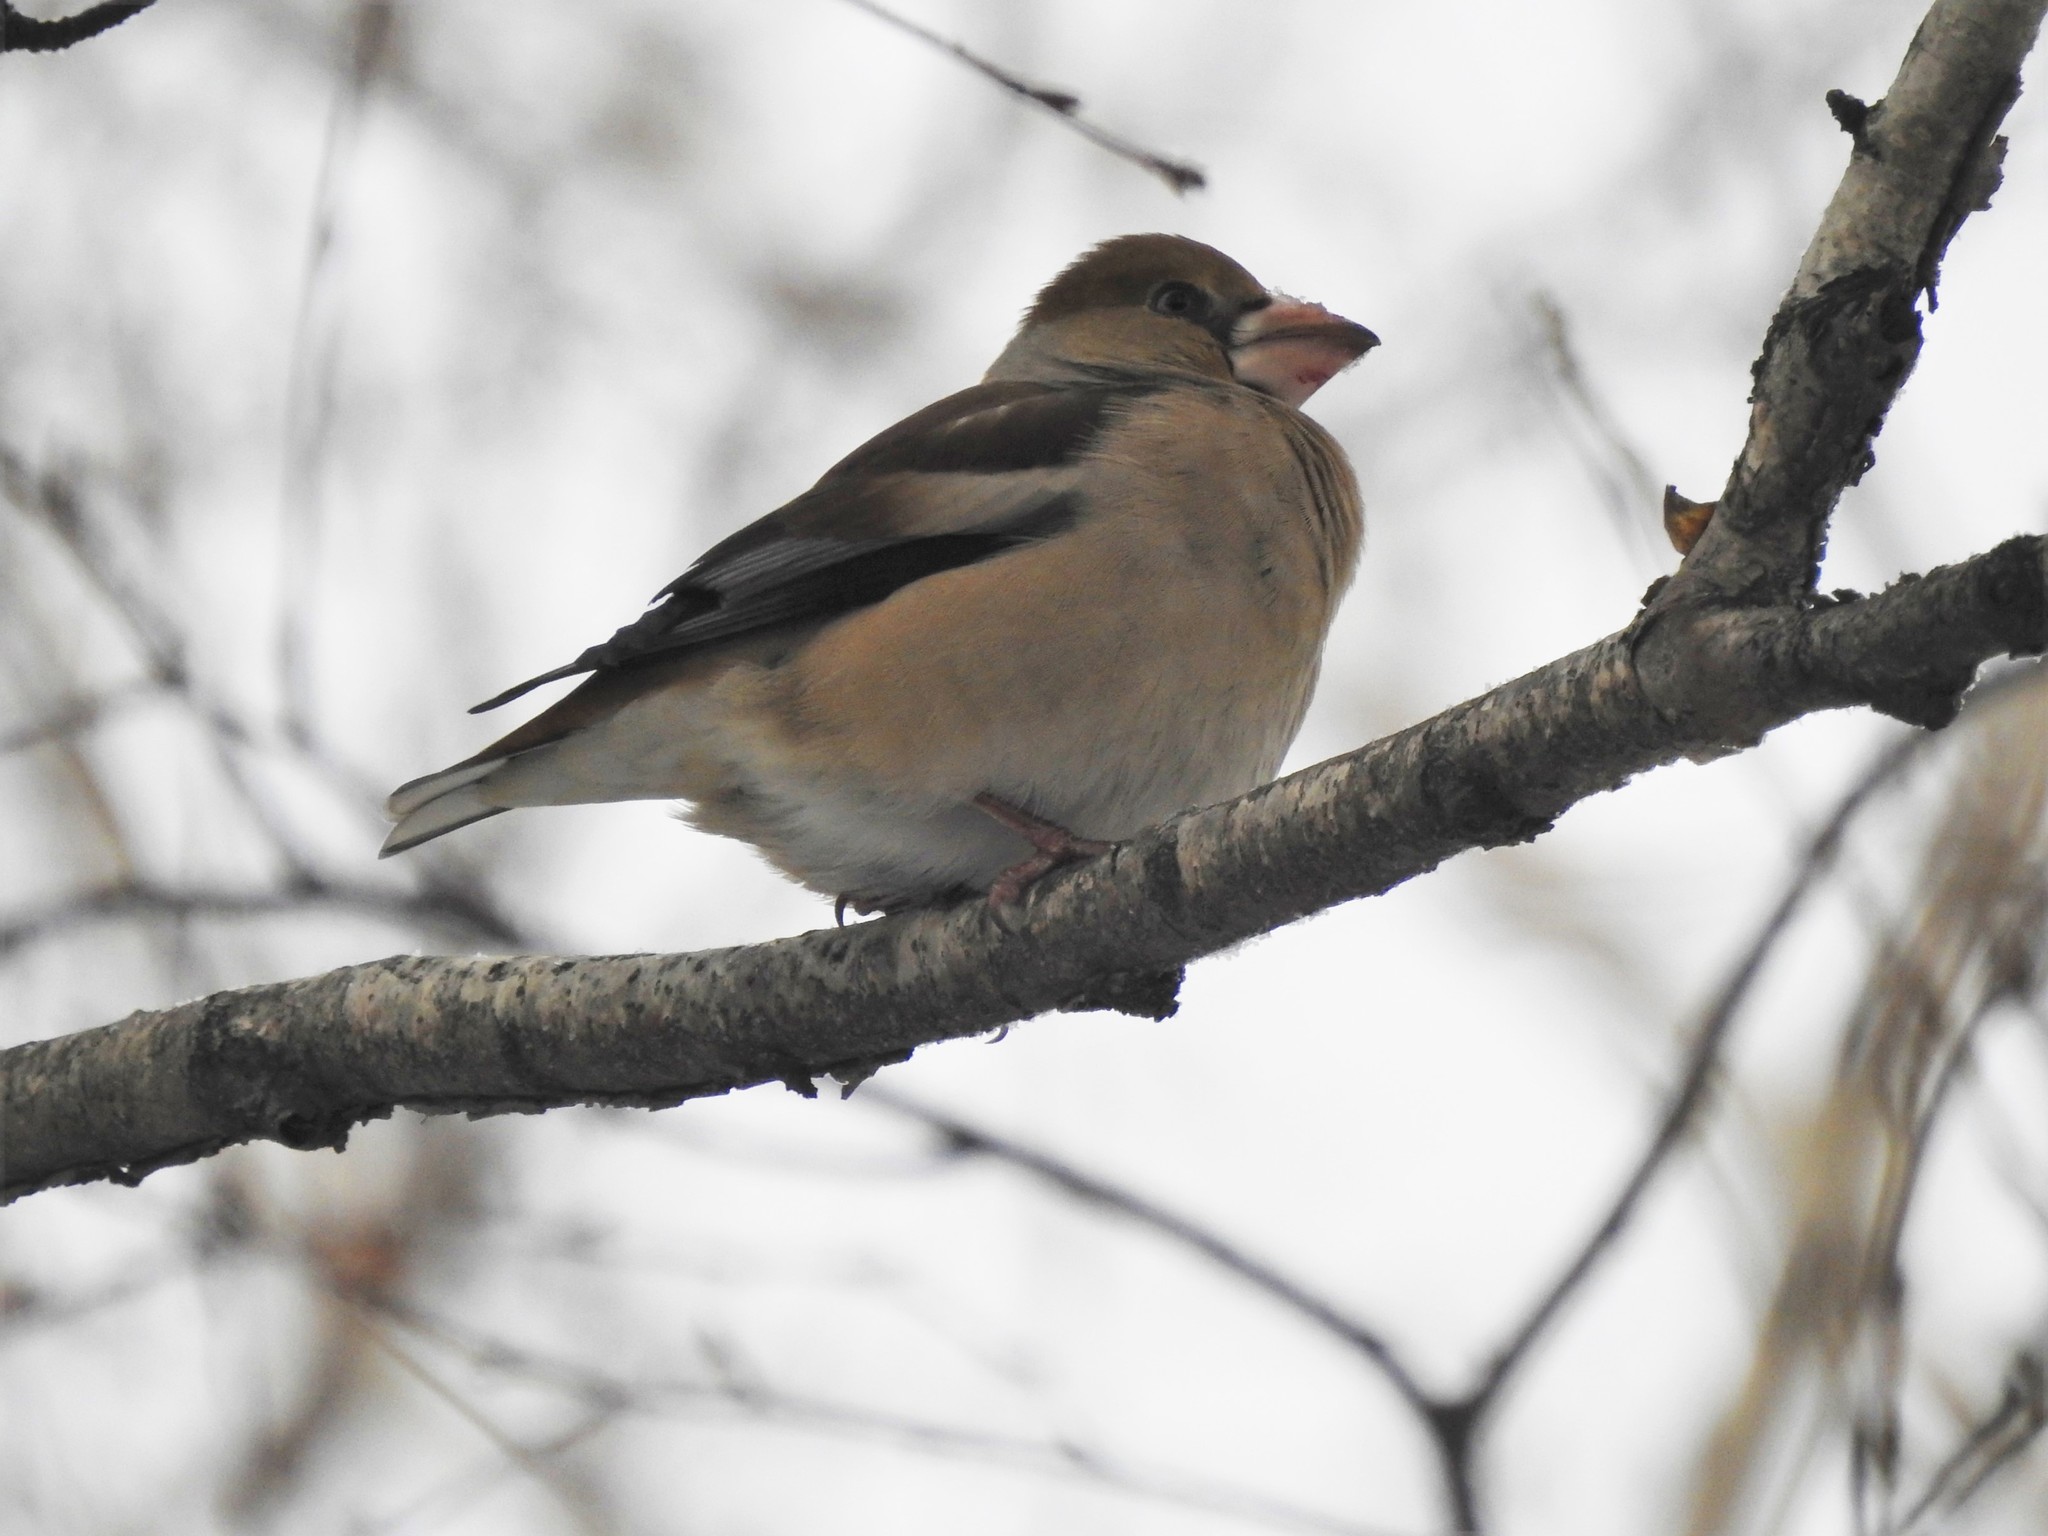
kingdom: Animalia
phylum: Chordata
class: Aves
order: Passeriformes
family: Fringillidae
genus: Coccothraustes
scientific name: Coccothraustes coccothraustes
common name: Hawfinch
